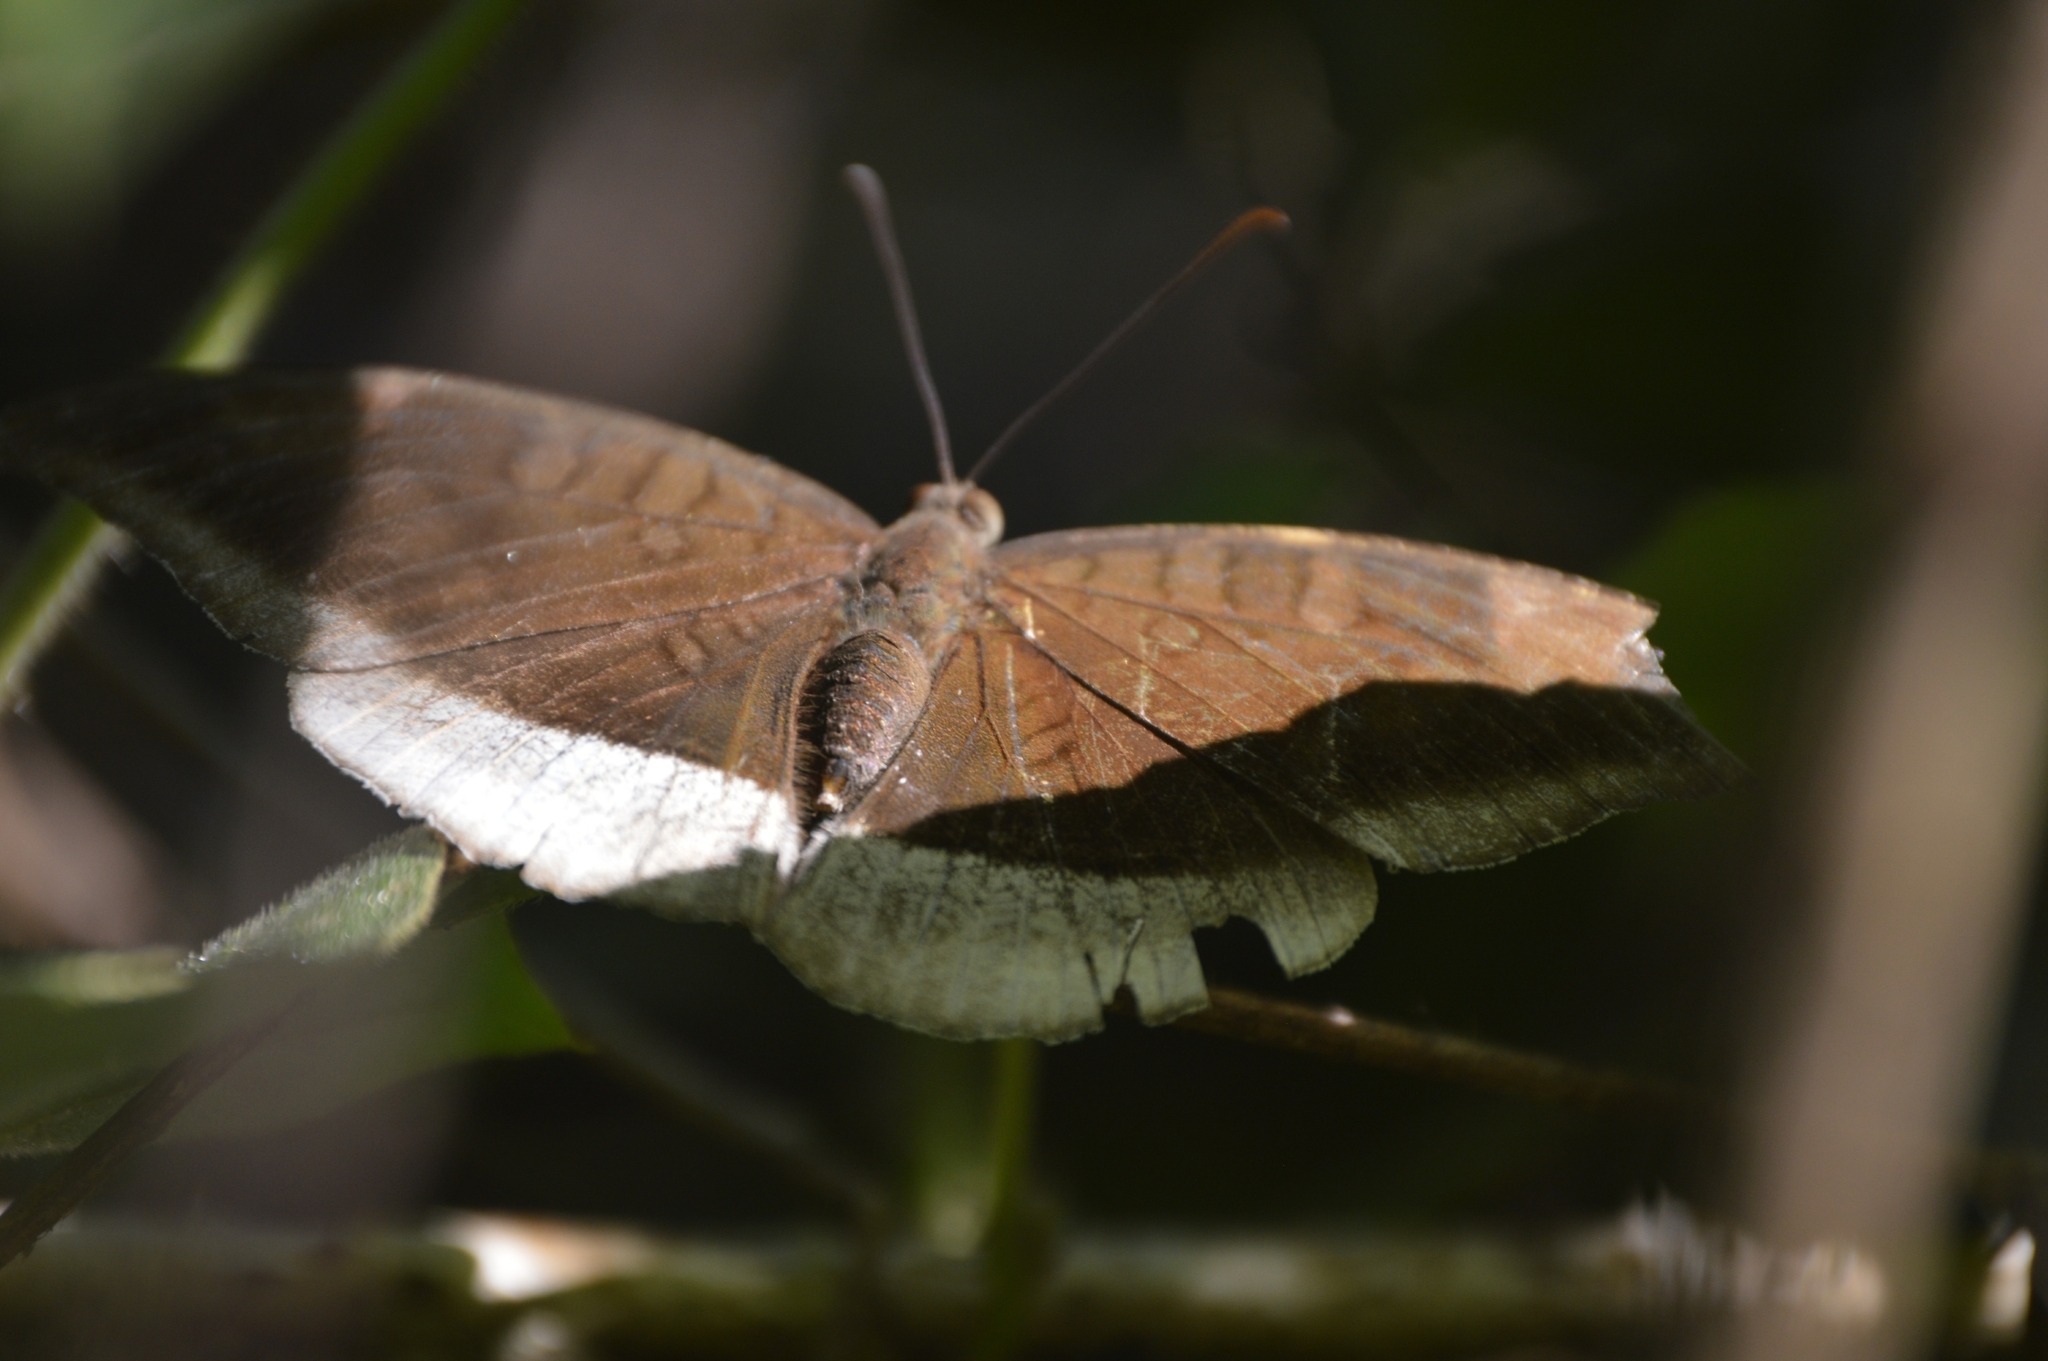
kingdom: Animalia
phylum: Arthropoda
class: Insecta
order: Lepidoptera
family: Nymphalidae
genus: Tanaecia
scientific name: Tanaecia lepidea
